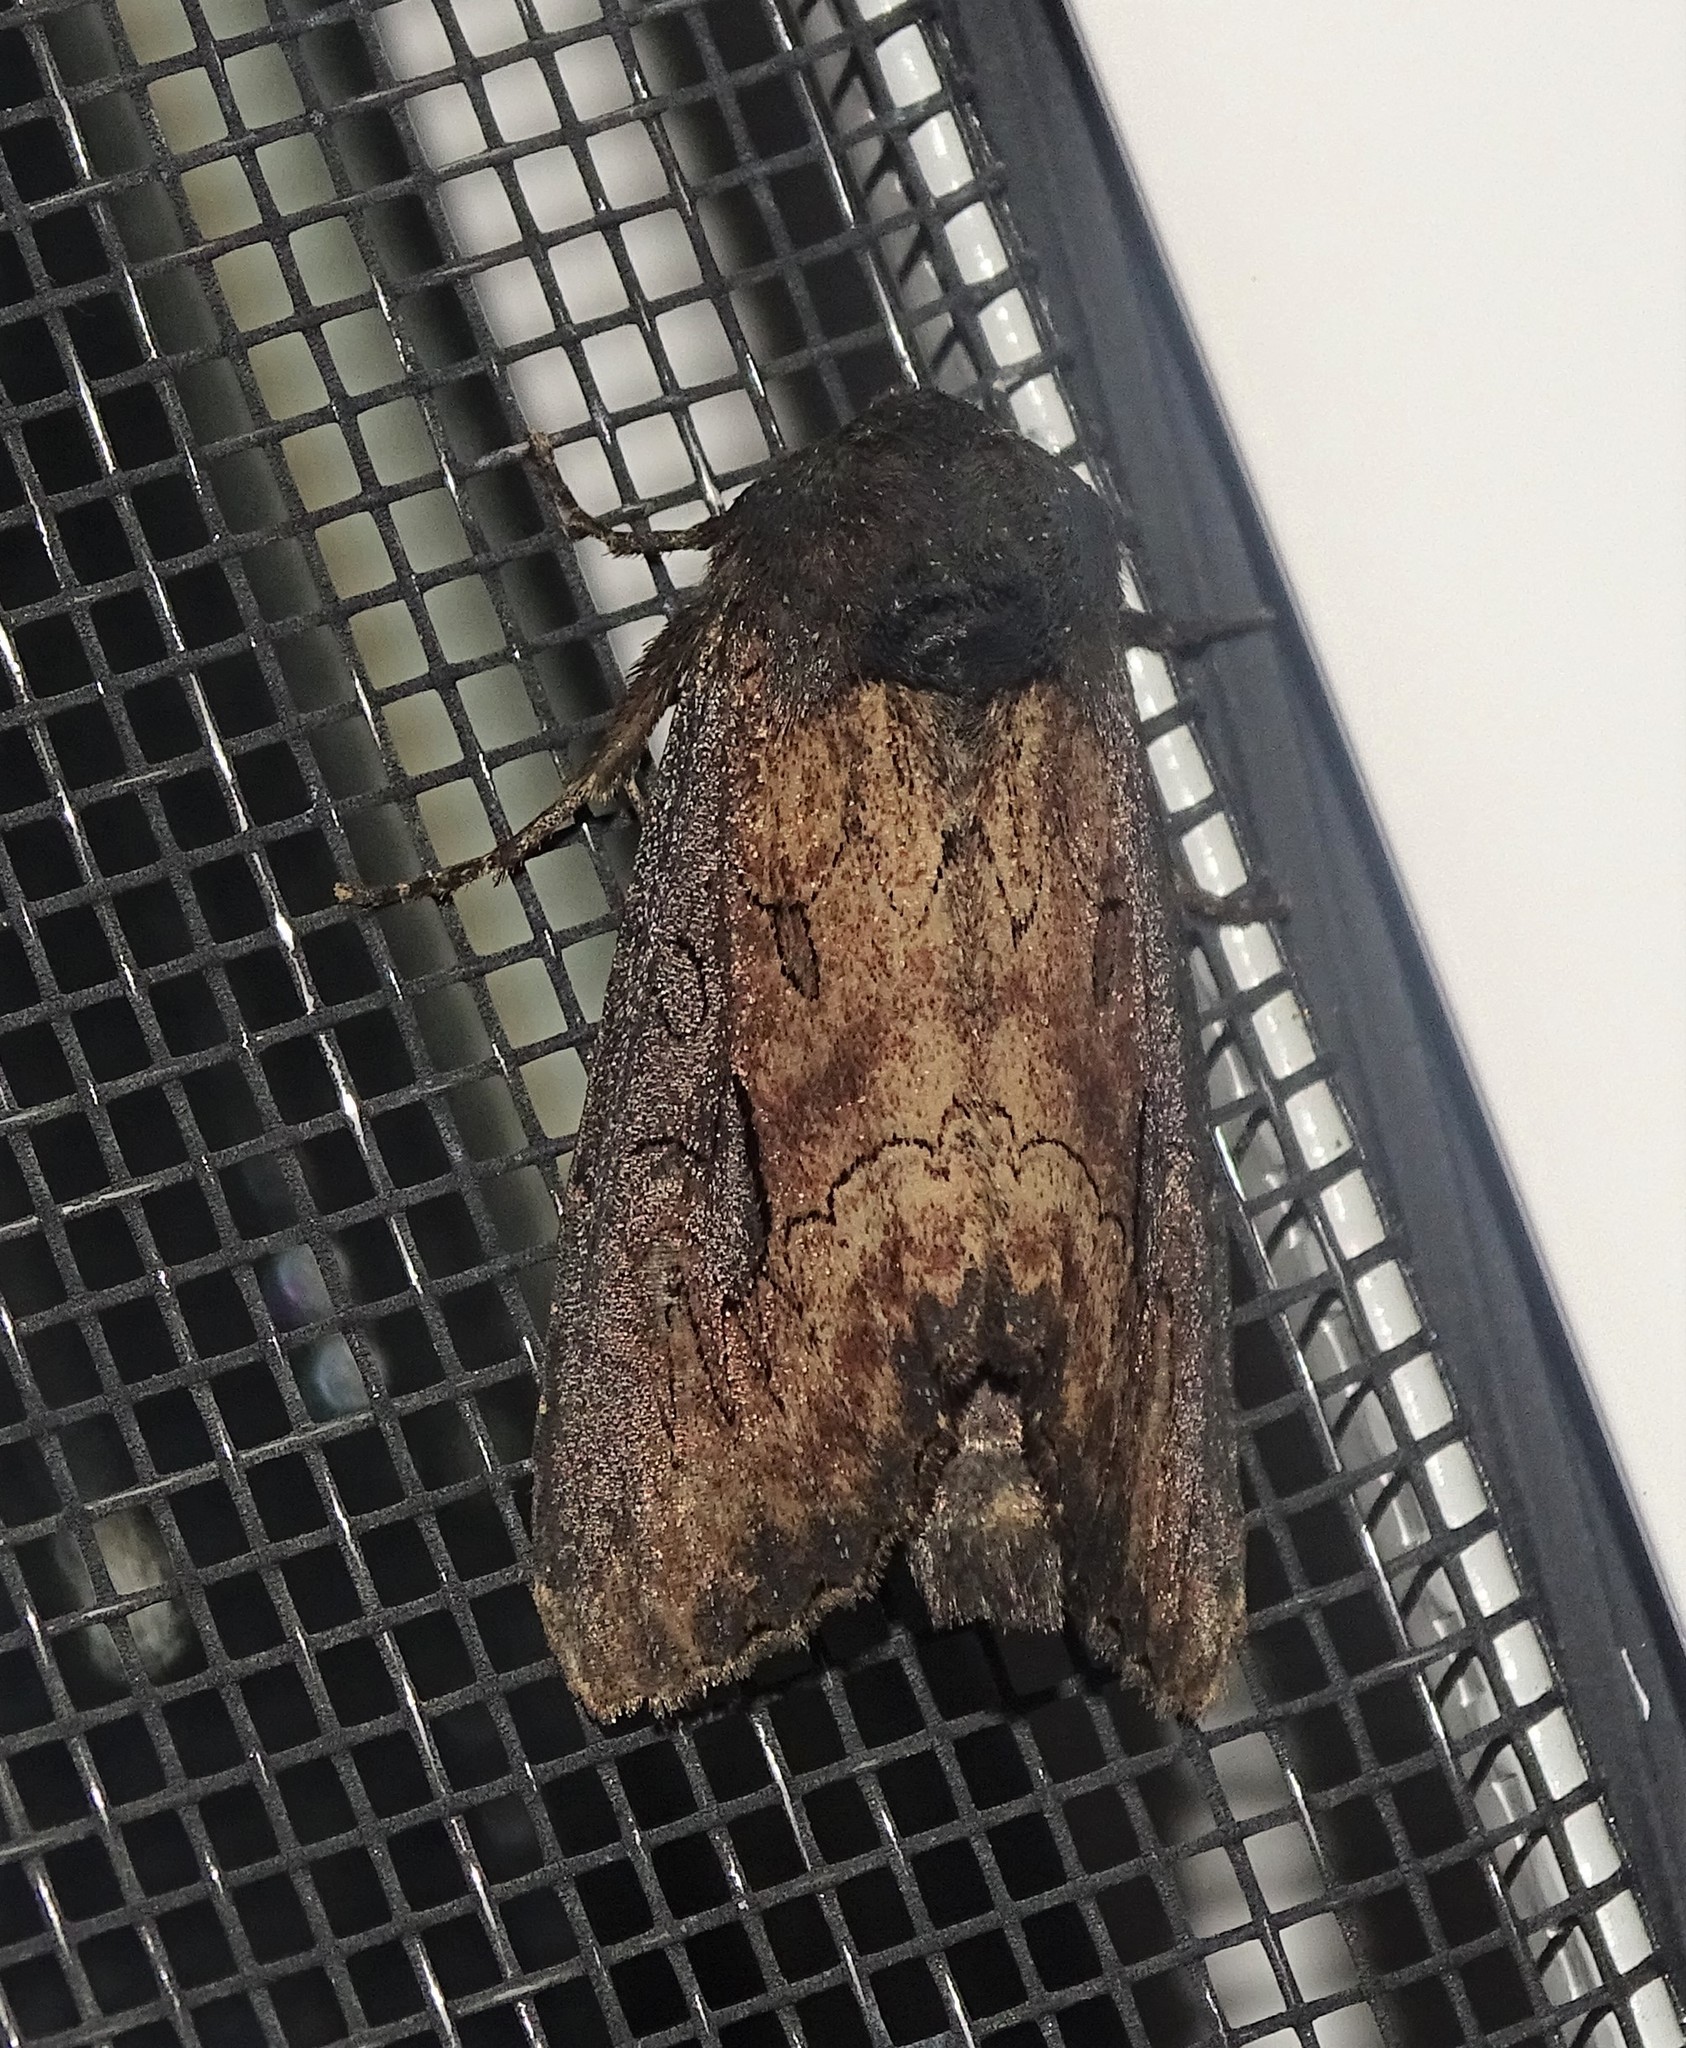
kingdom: Animalia
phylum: Arthropoda
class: Insecta
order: Lepidoptera
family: Noctuidae
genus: Macronoctua
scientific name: Macronoctua onusta
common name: Iris borer
